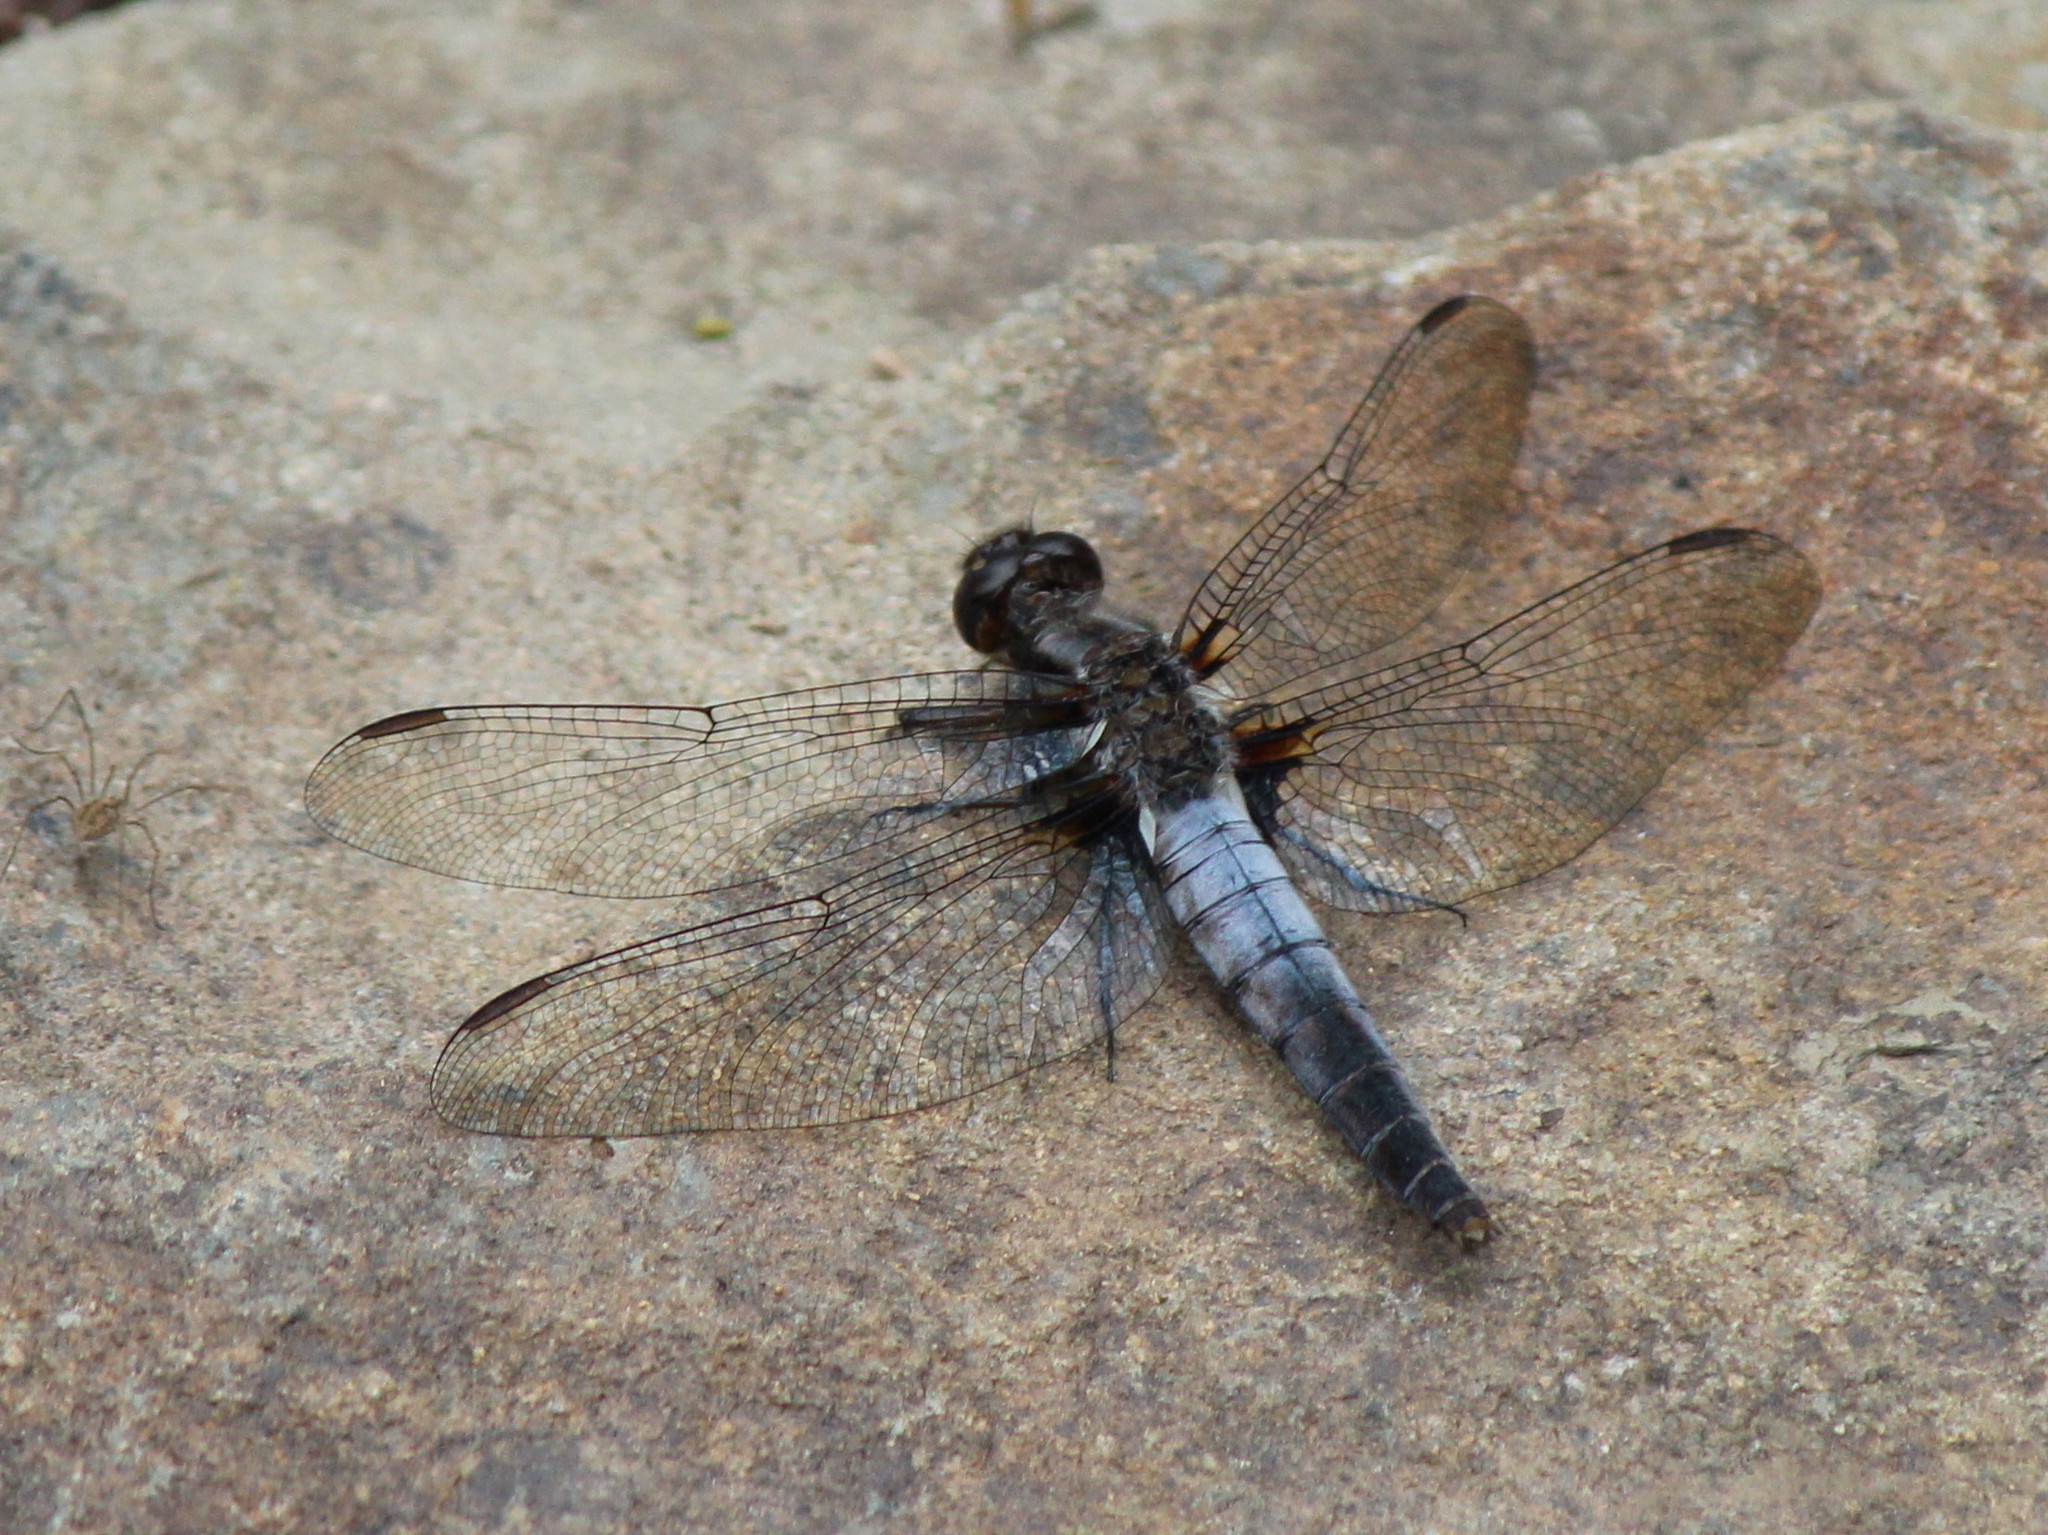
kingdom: Animalia
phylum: Arthropoda
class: Insecta
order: Odonata
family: Libellulidae
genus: Ladona
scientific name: Ladona julia
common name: Chalk-fronted corporal
